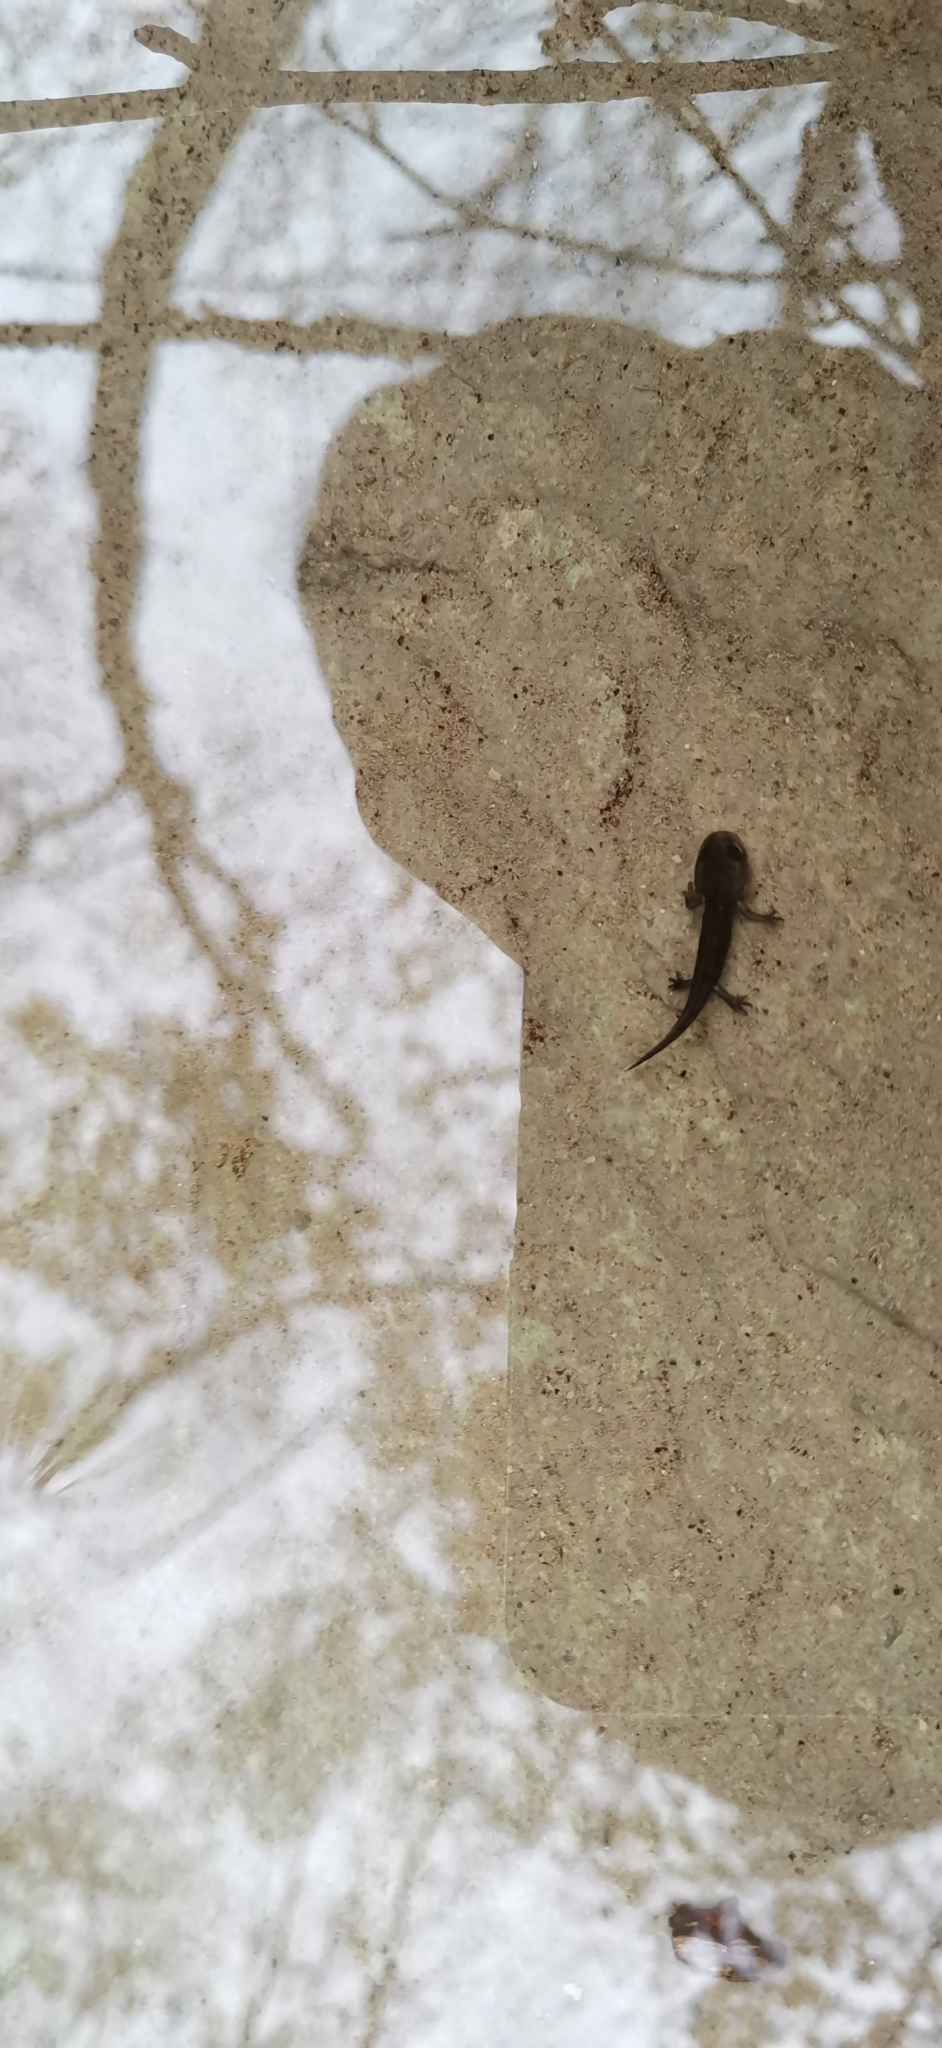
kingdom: Animalia
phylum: Chordata
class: Amphibia
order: Caudata
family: Salamandridae
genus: Salamandra
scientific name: Salamandra salamandra
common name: Fire salamander
